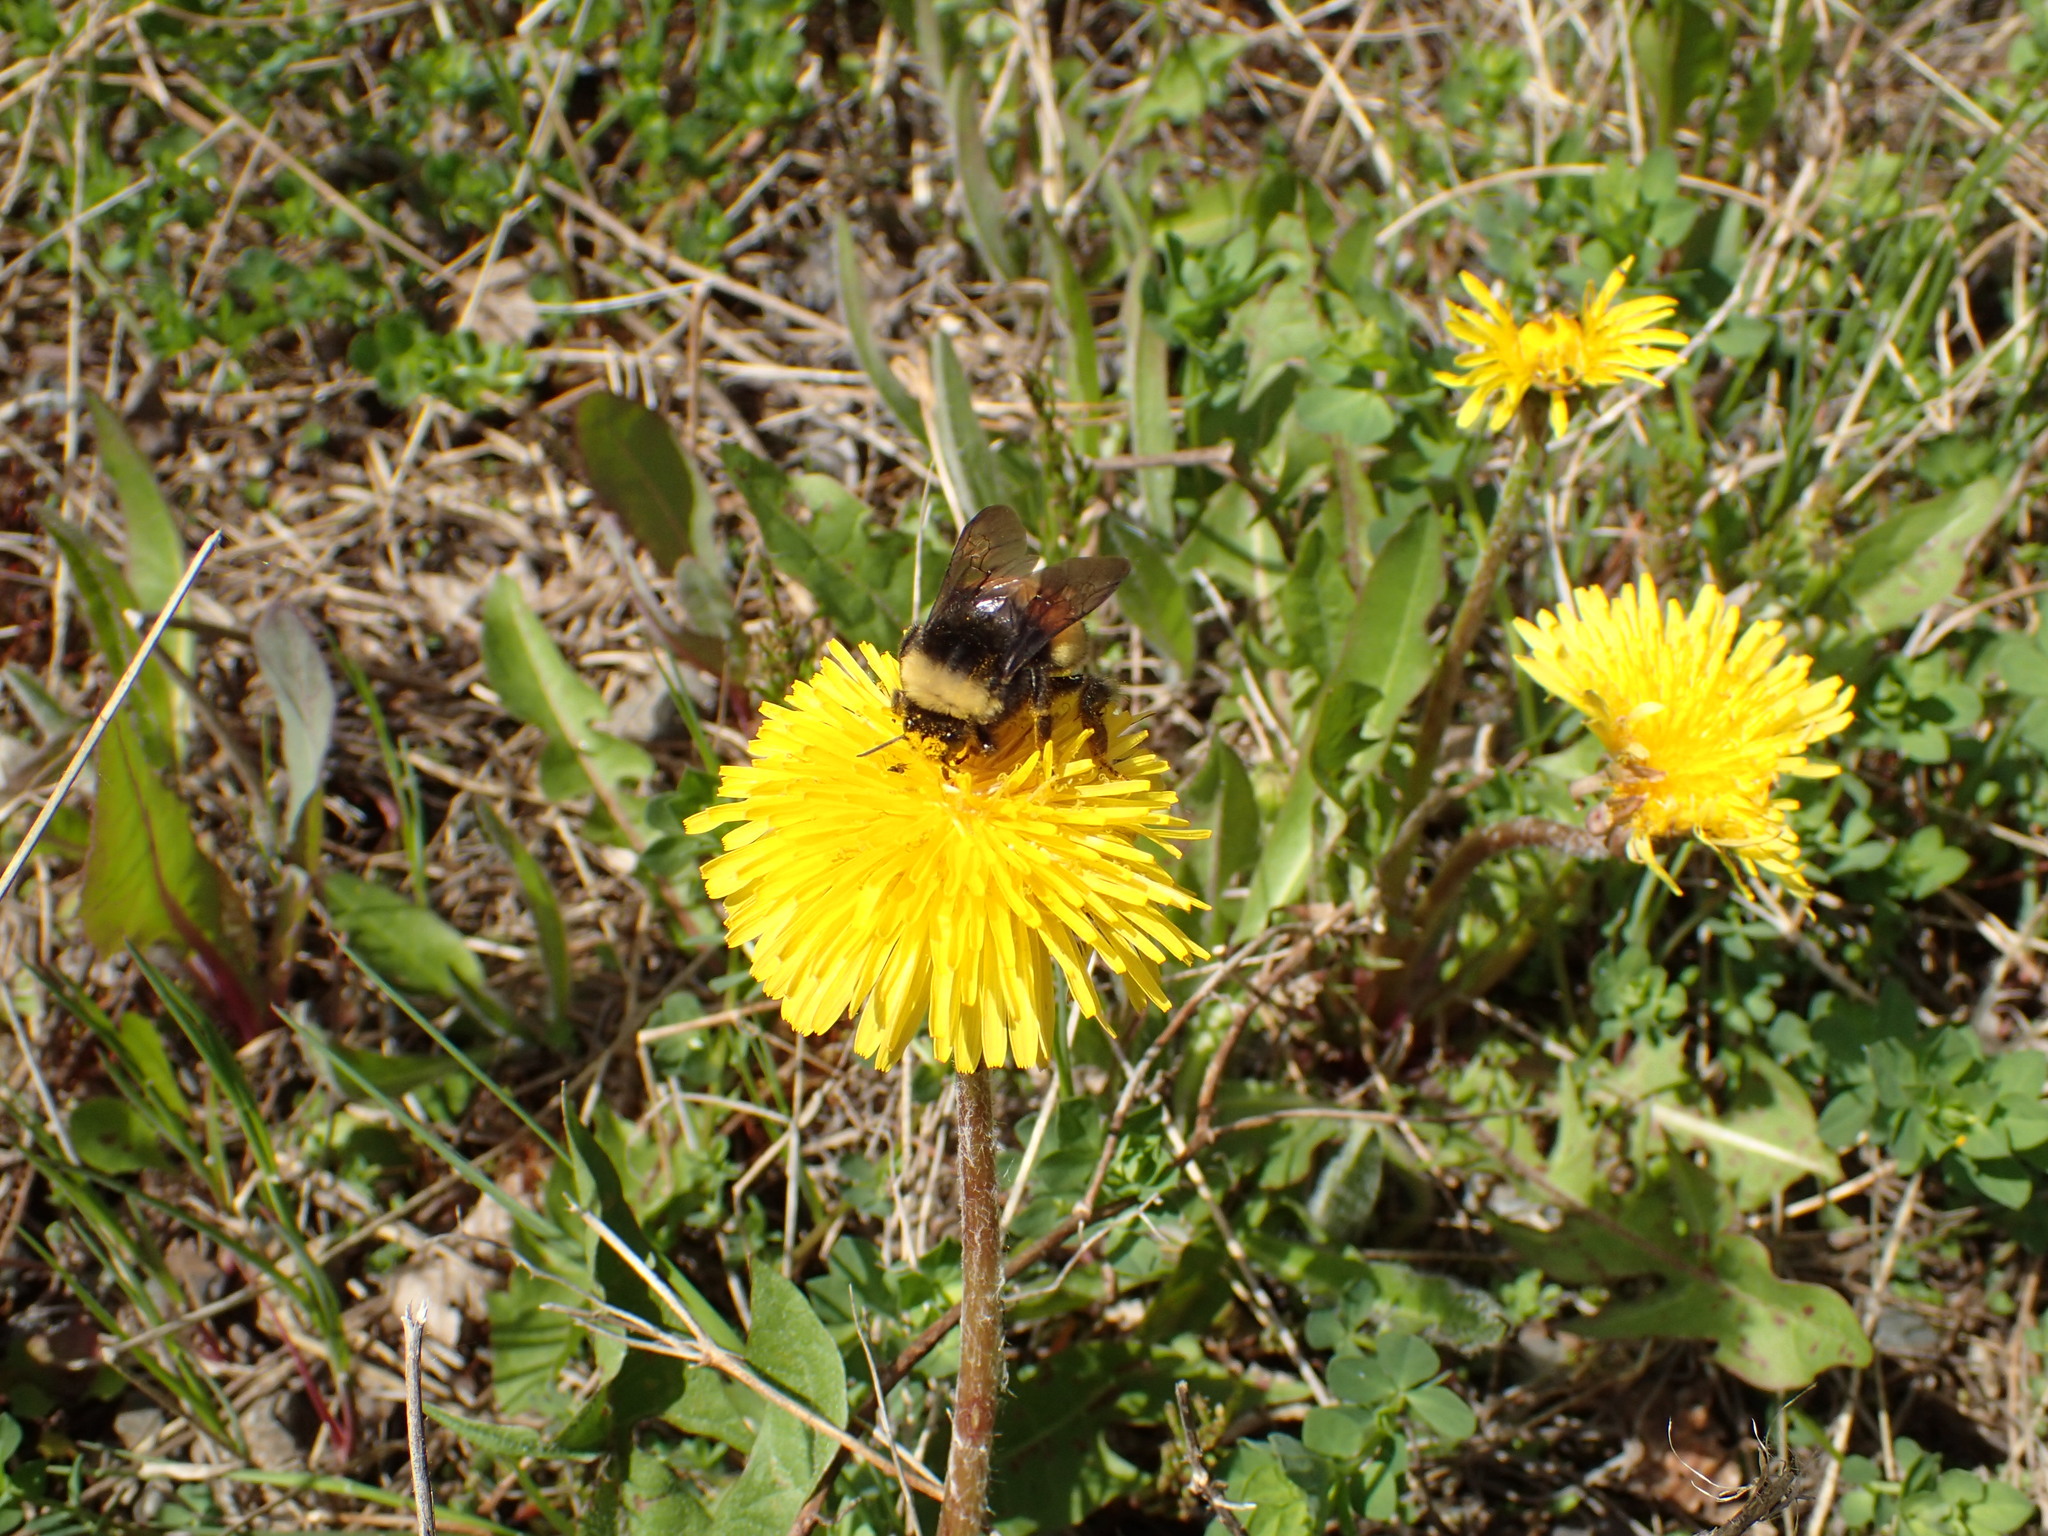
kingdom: Animalia
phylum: Arthropoda
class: Insecta
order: Hymenoptera
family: Apidae
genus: Bombus
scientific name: Bombus terricola
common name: Yellow-banded bumble bee
